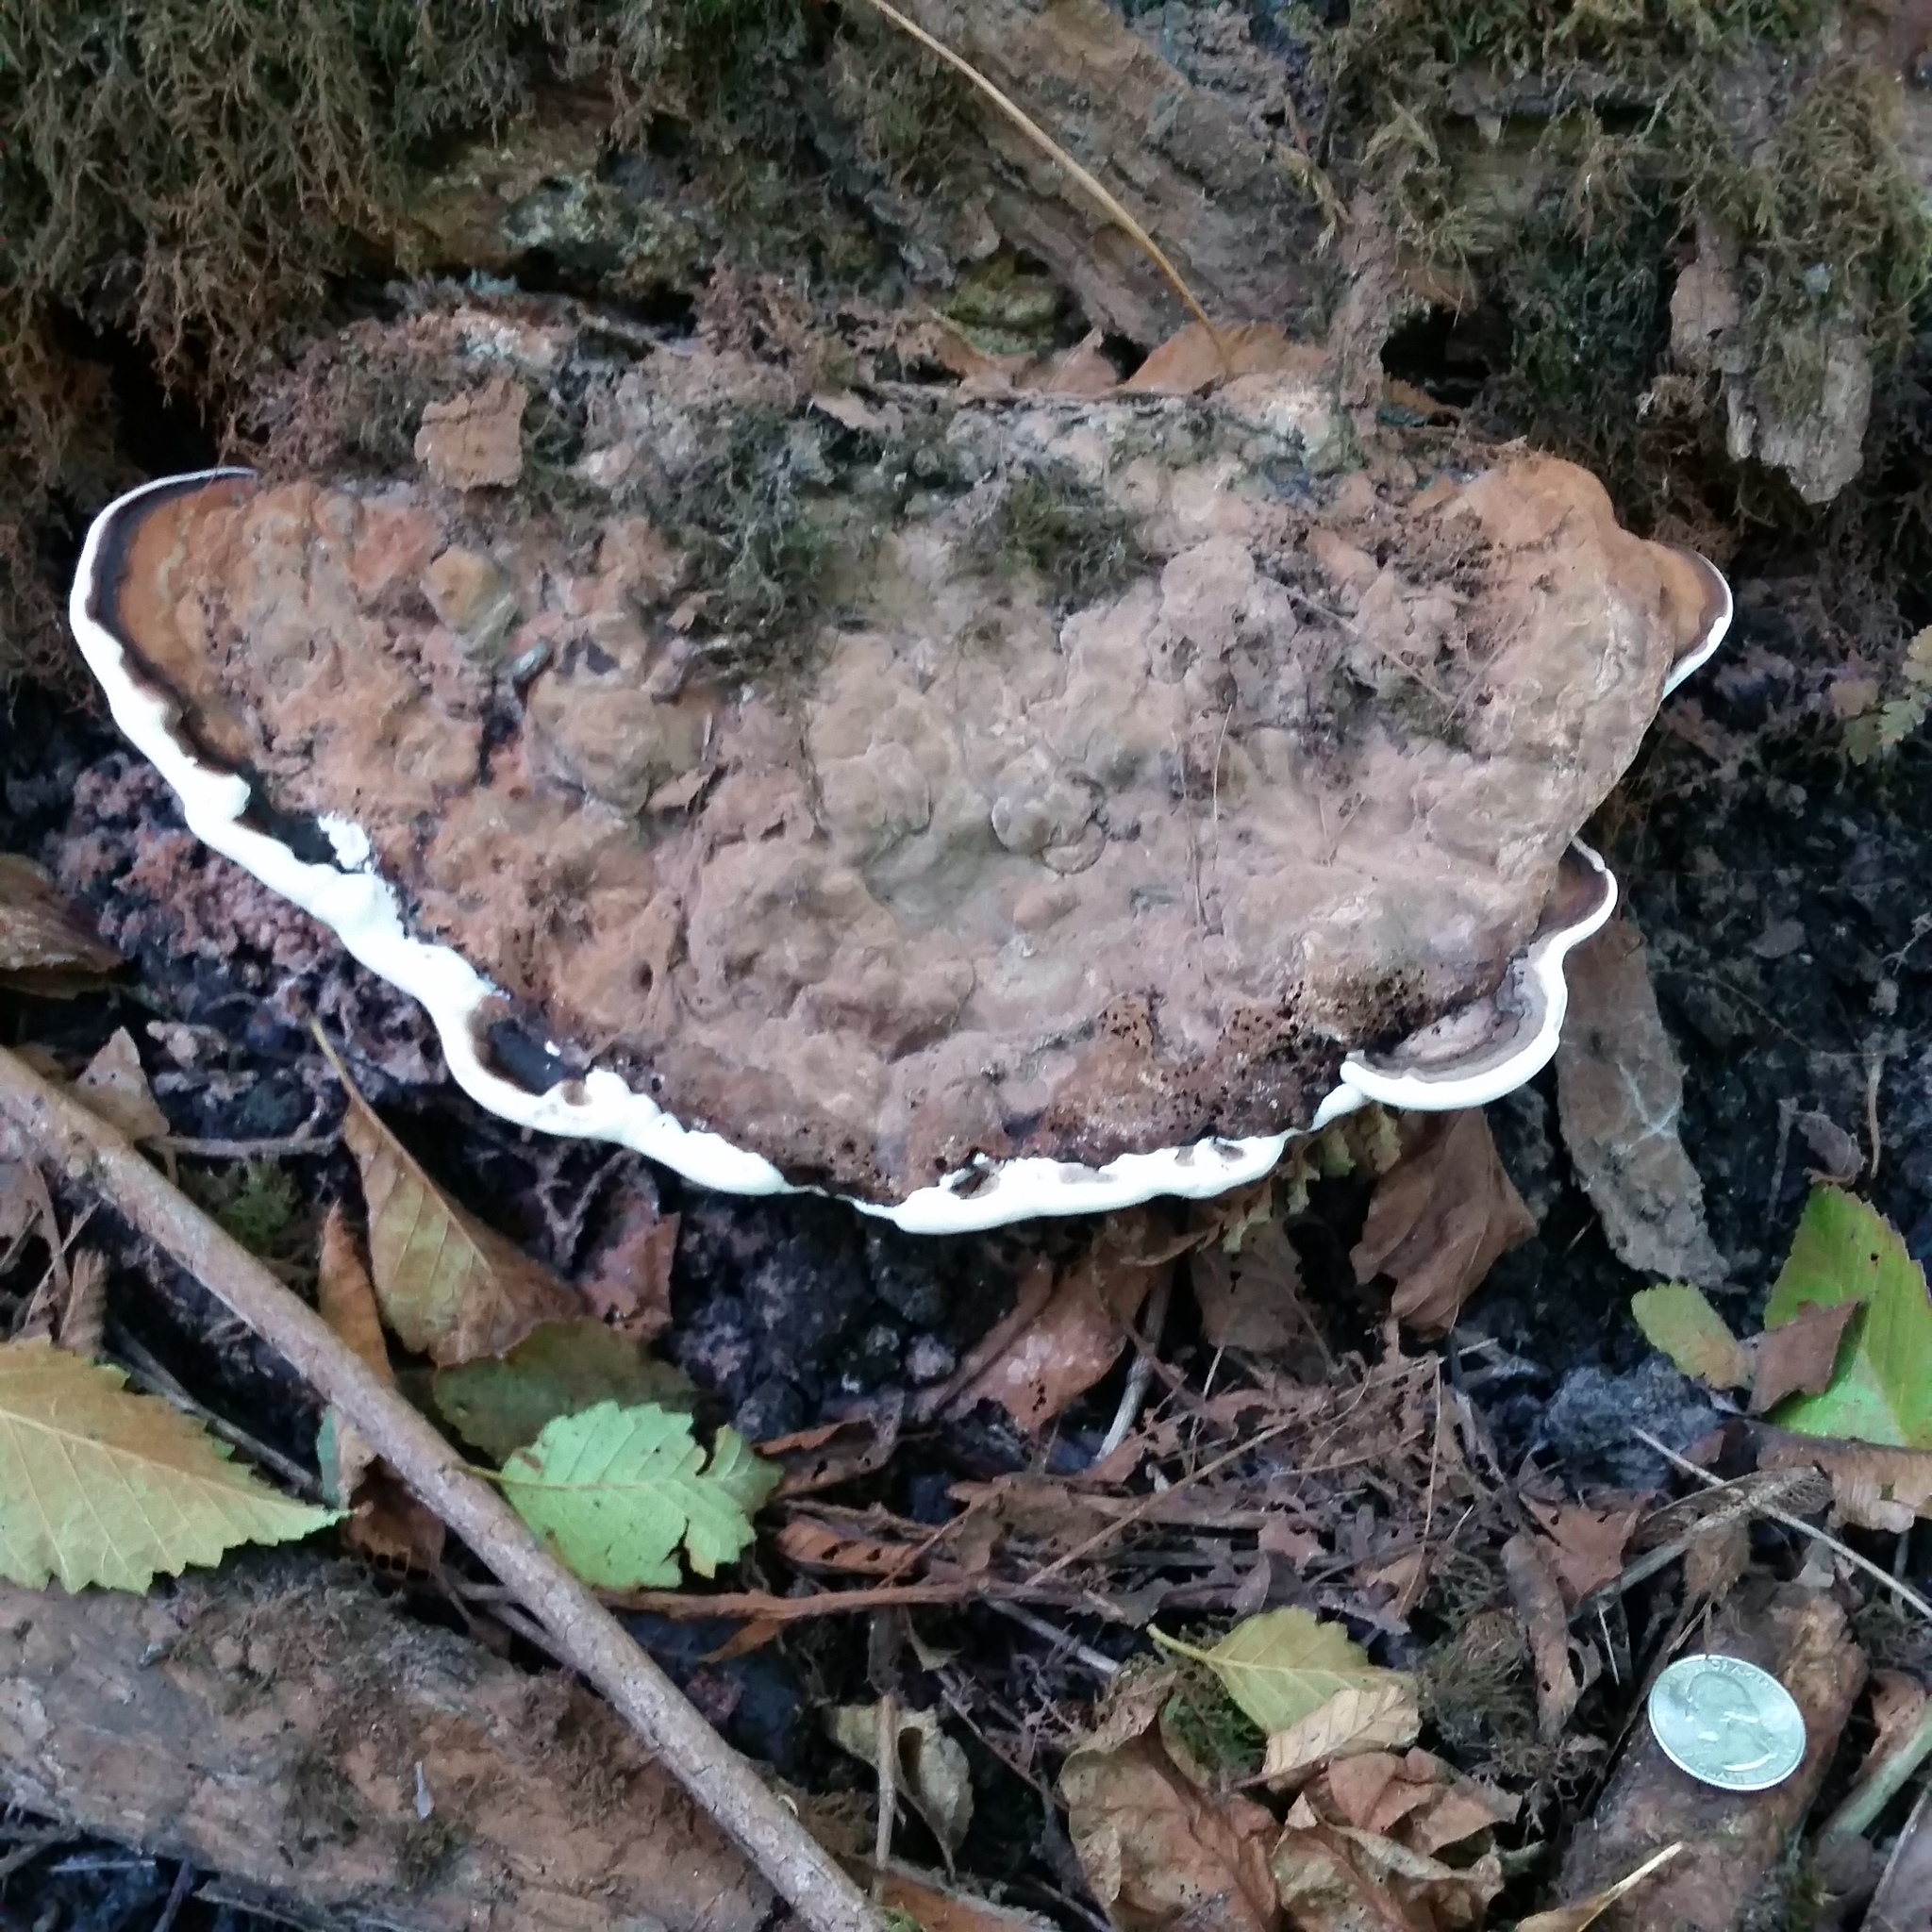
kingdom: Fungi
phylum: Basidiomycota
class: Agaricomycetes
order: Polyporales
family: Polyporaceae
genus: Ganoderma
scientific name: Ganoderma applanatum
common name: Artist's bracket
